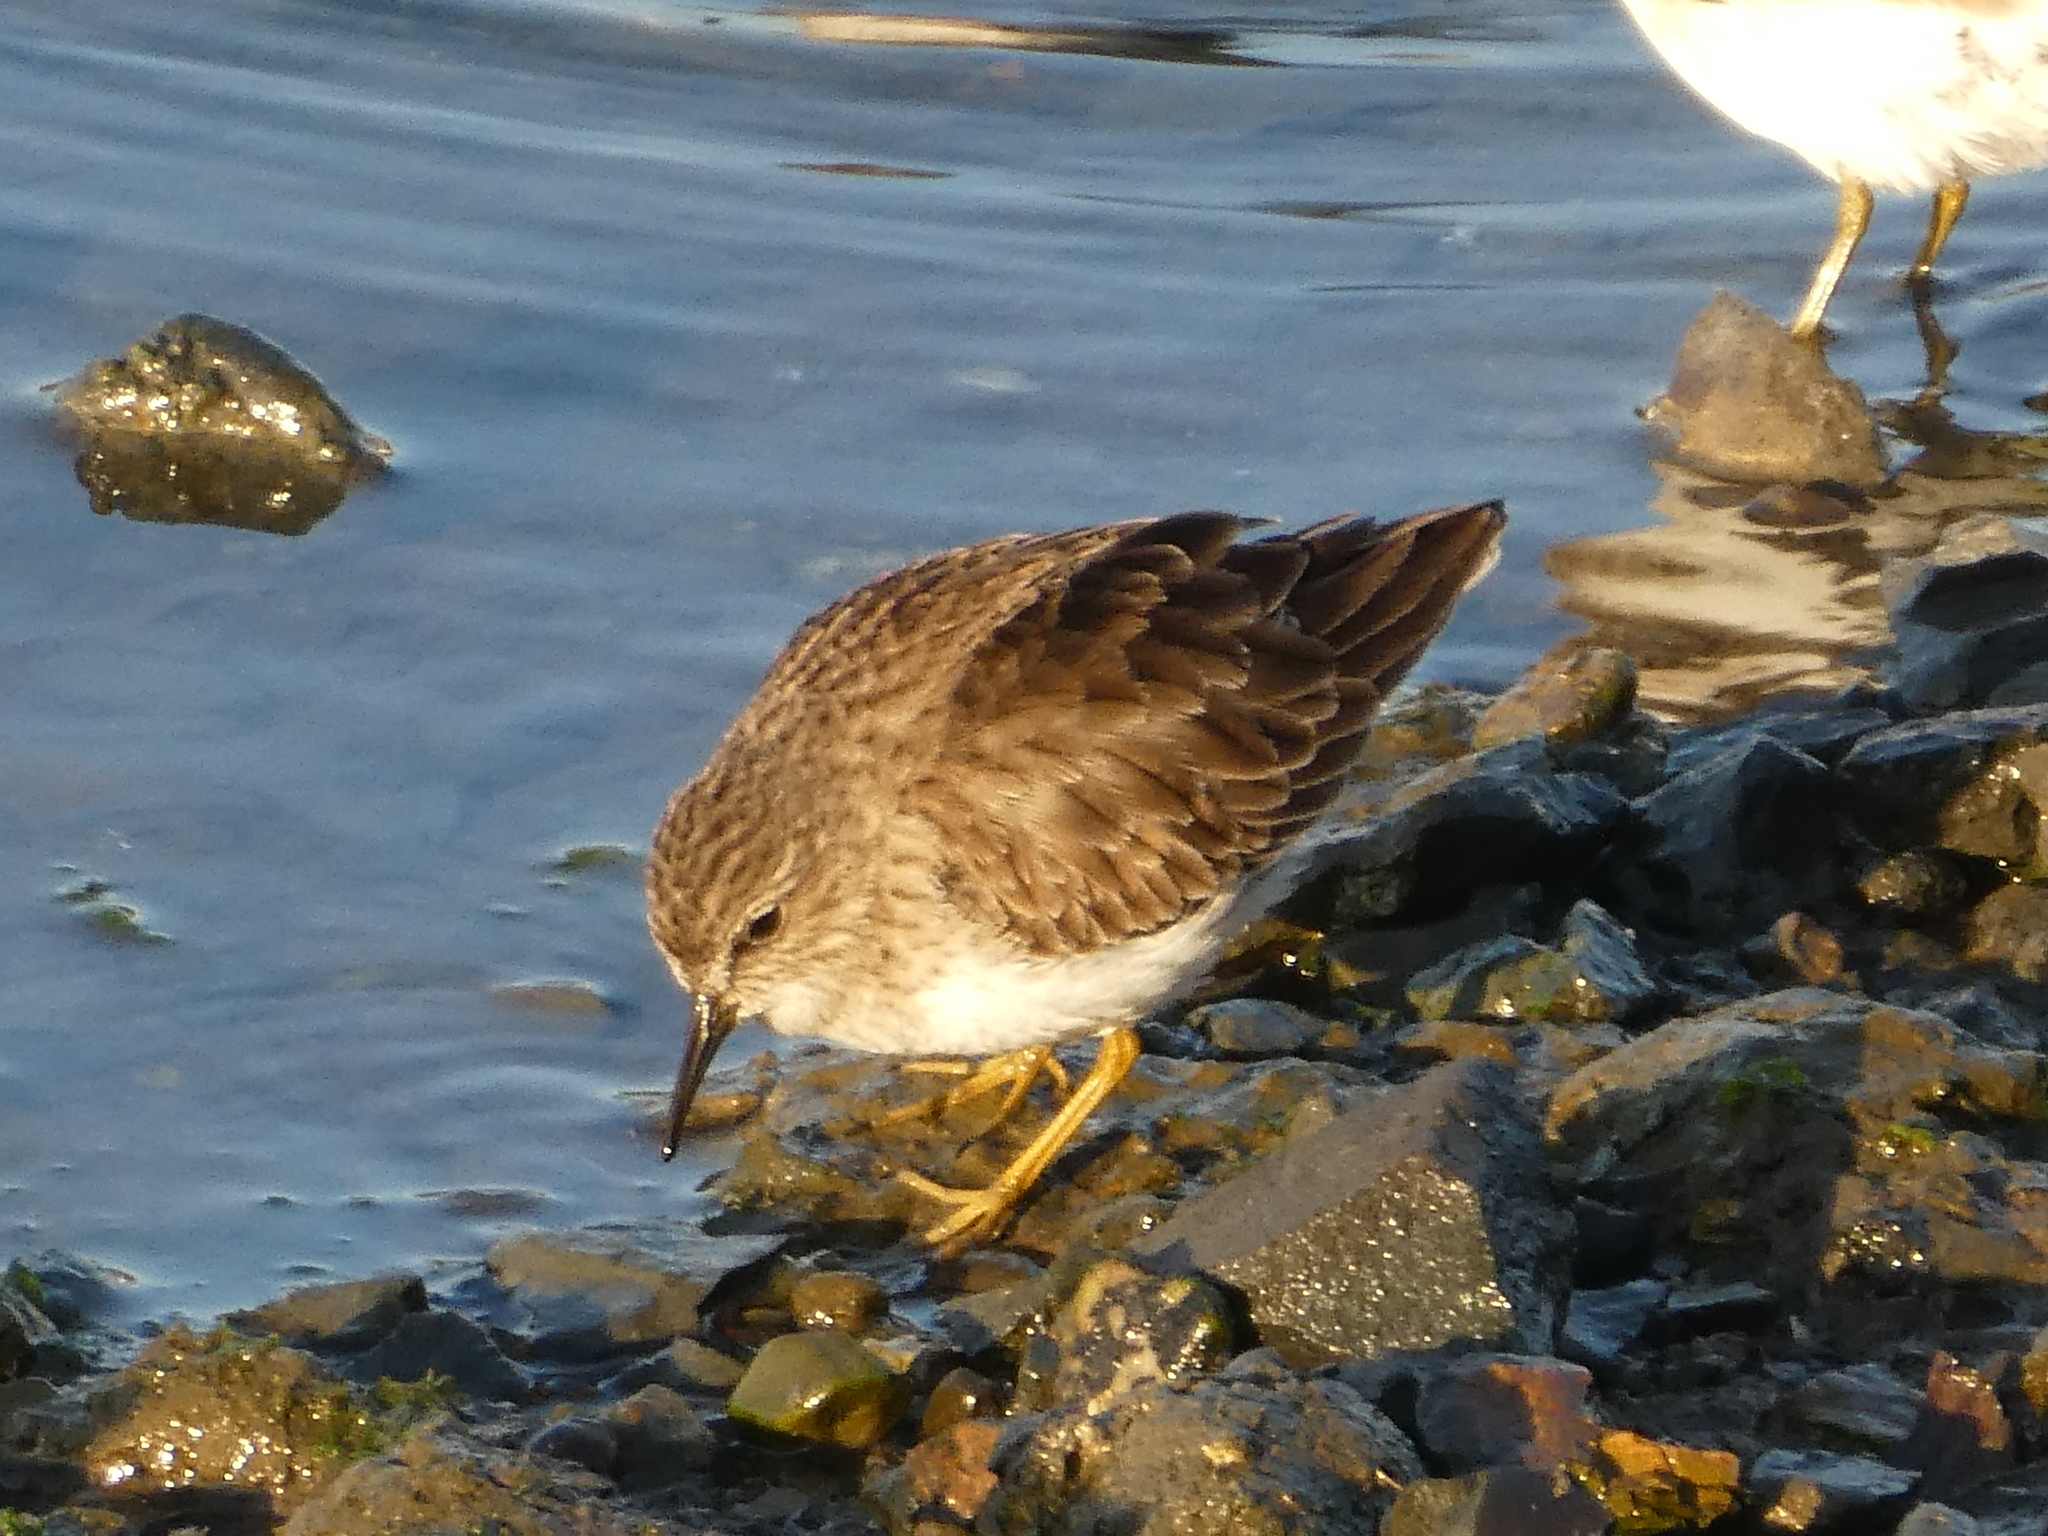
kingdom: Animalia
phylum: Chordata
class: Aves
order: Charadriiformes
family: Scolopacidae
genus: Calidris
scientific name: Calidris minutilla
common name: Least sandpiper
